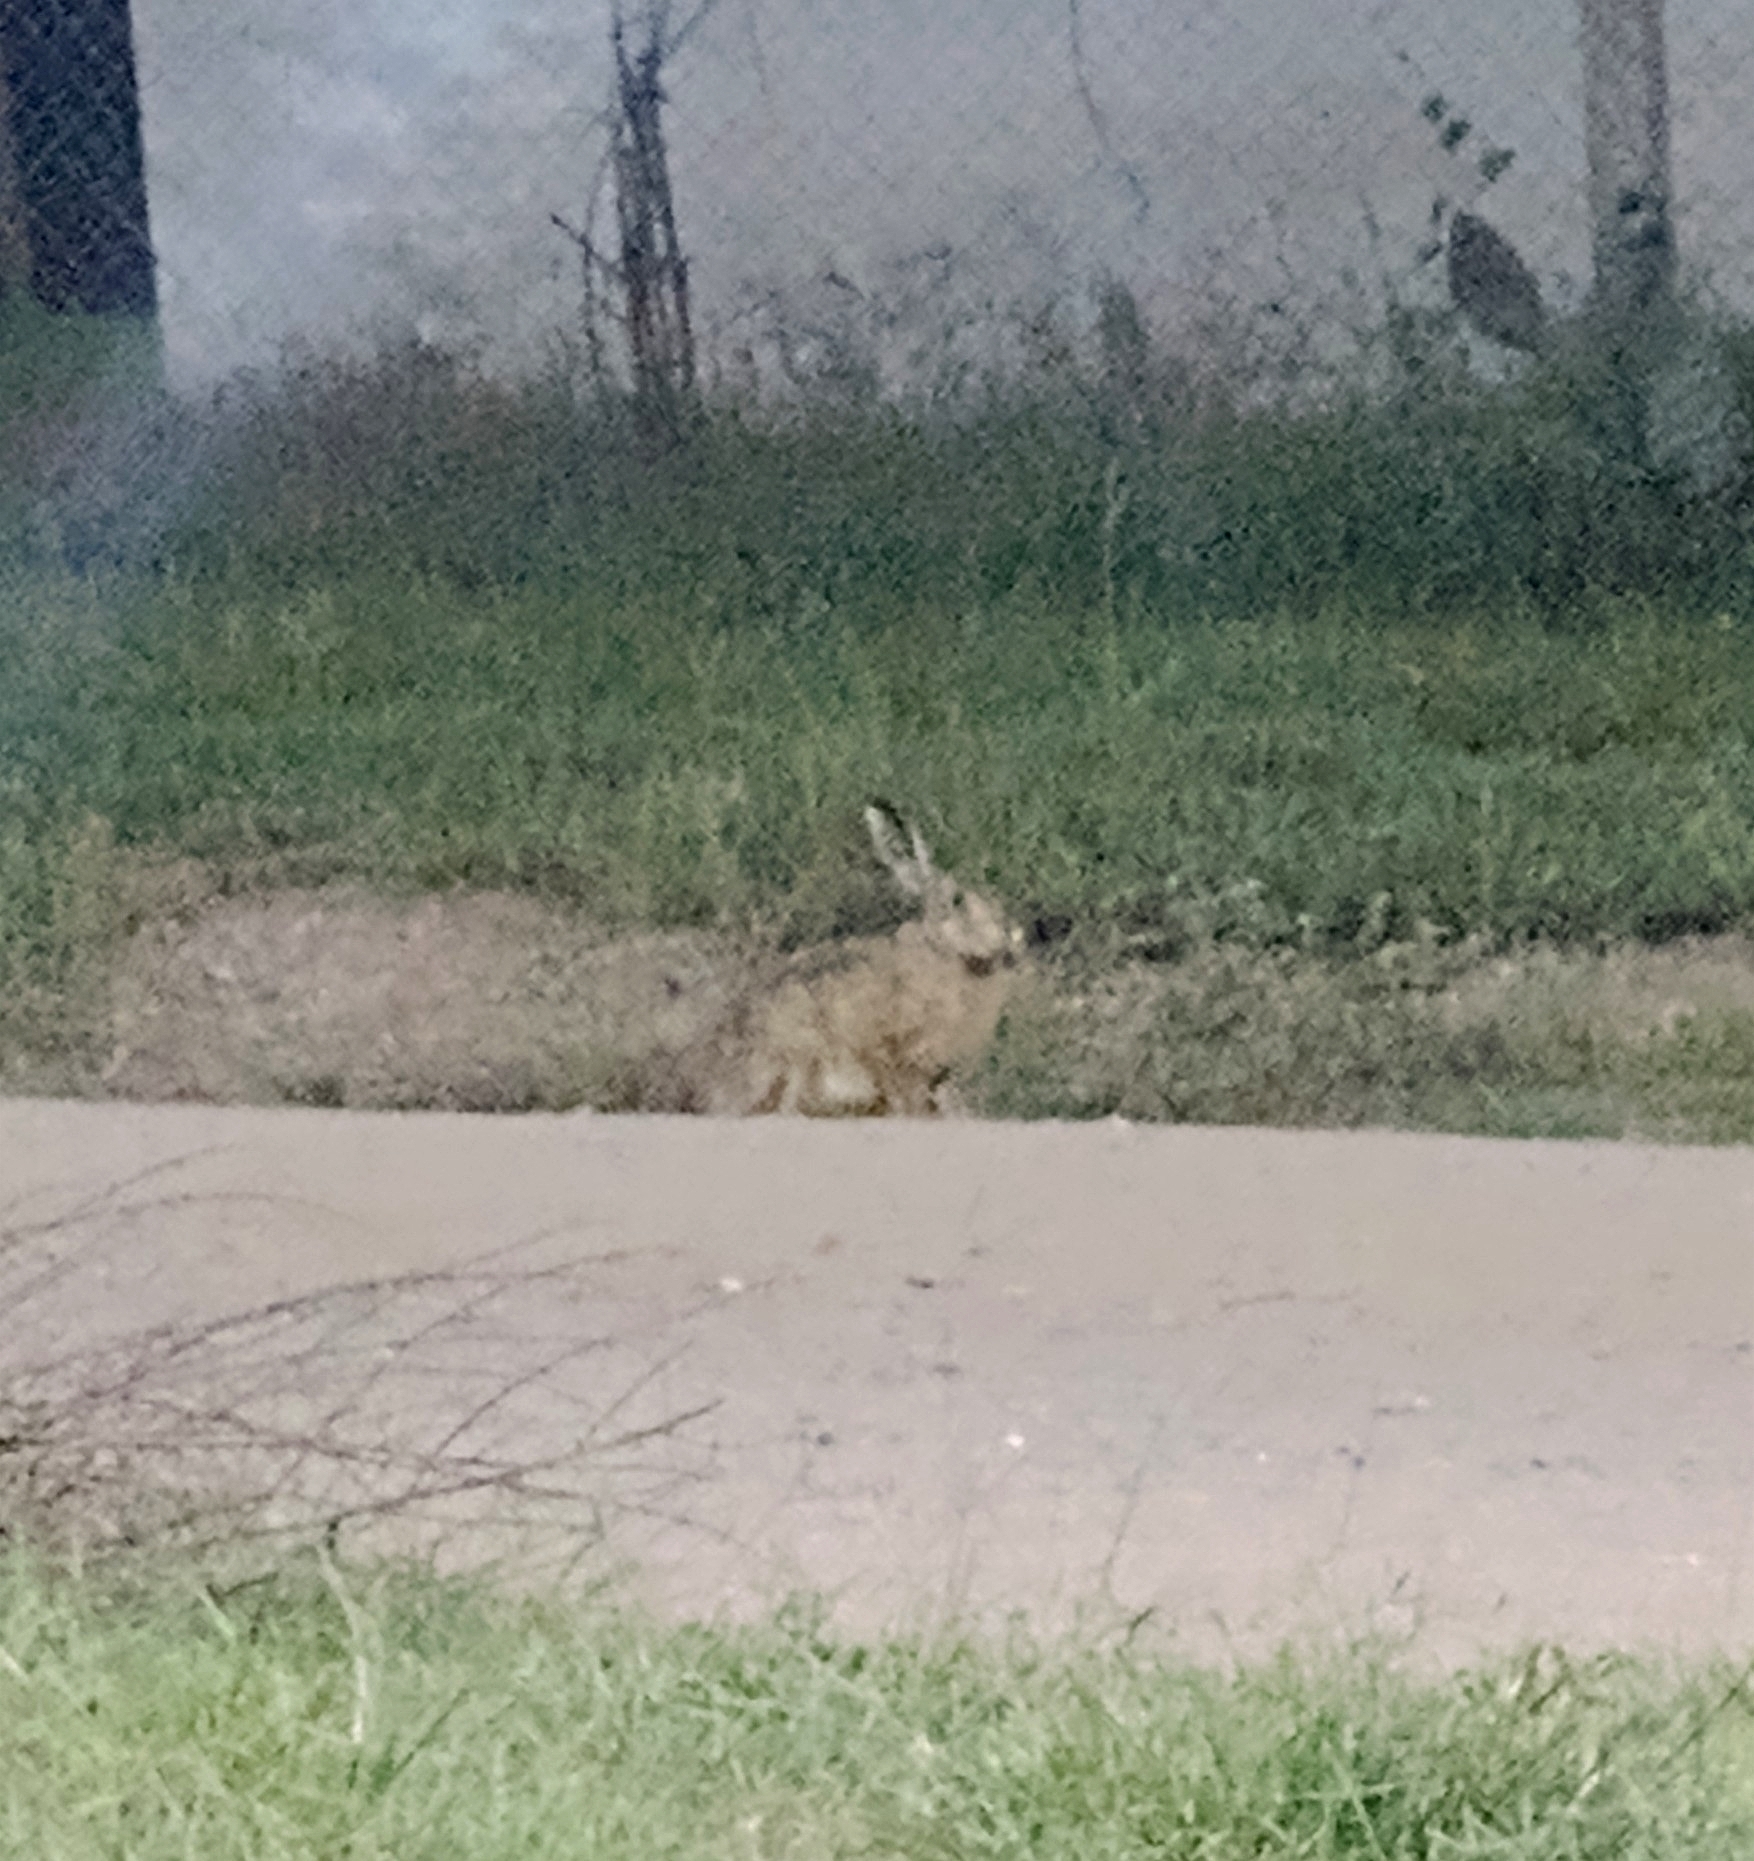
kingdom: Animalia
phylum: Chordata
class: Mammalia
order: Lagomorpha
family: Leporidae
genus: Lepus
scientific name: Lepus europaeus
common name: European hare
